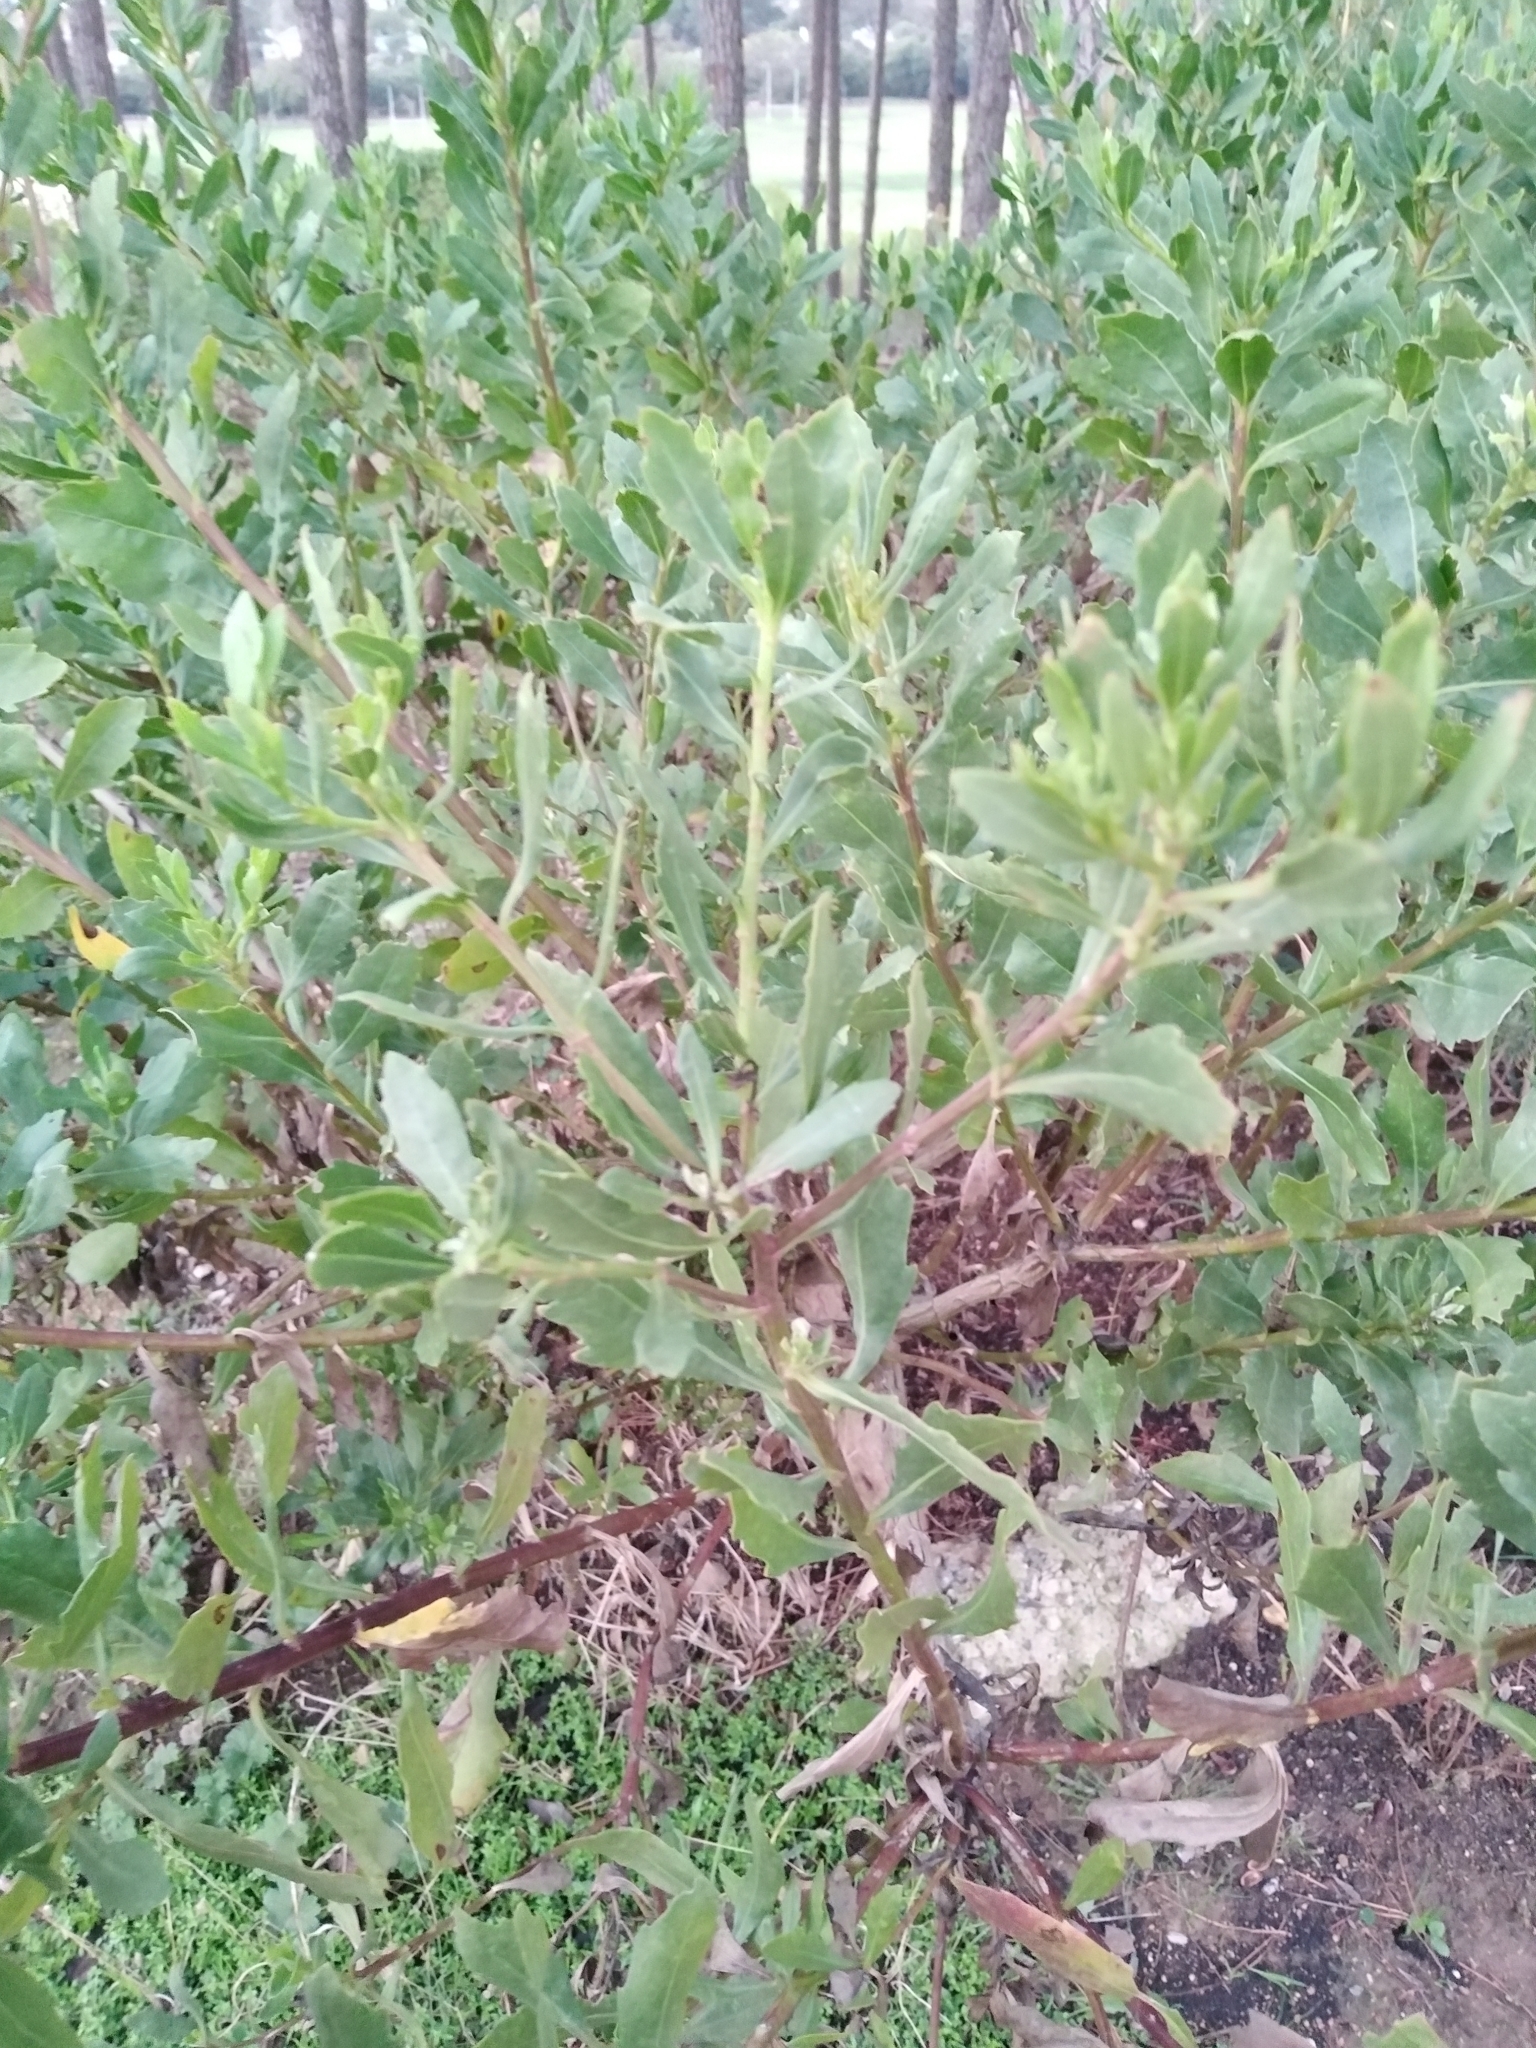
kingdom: Plantae
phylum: Tracheophyta
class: Magnoliopsida
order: Asterales
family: Asteraceae
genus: Osteospermum
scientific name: Osteospermum moniliferum
